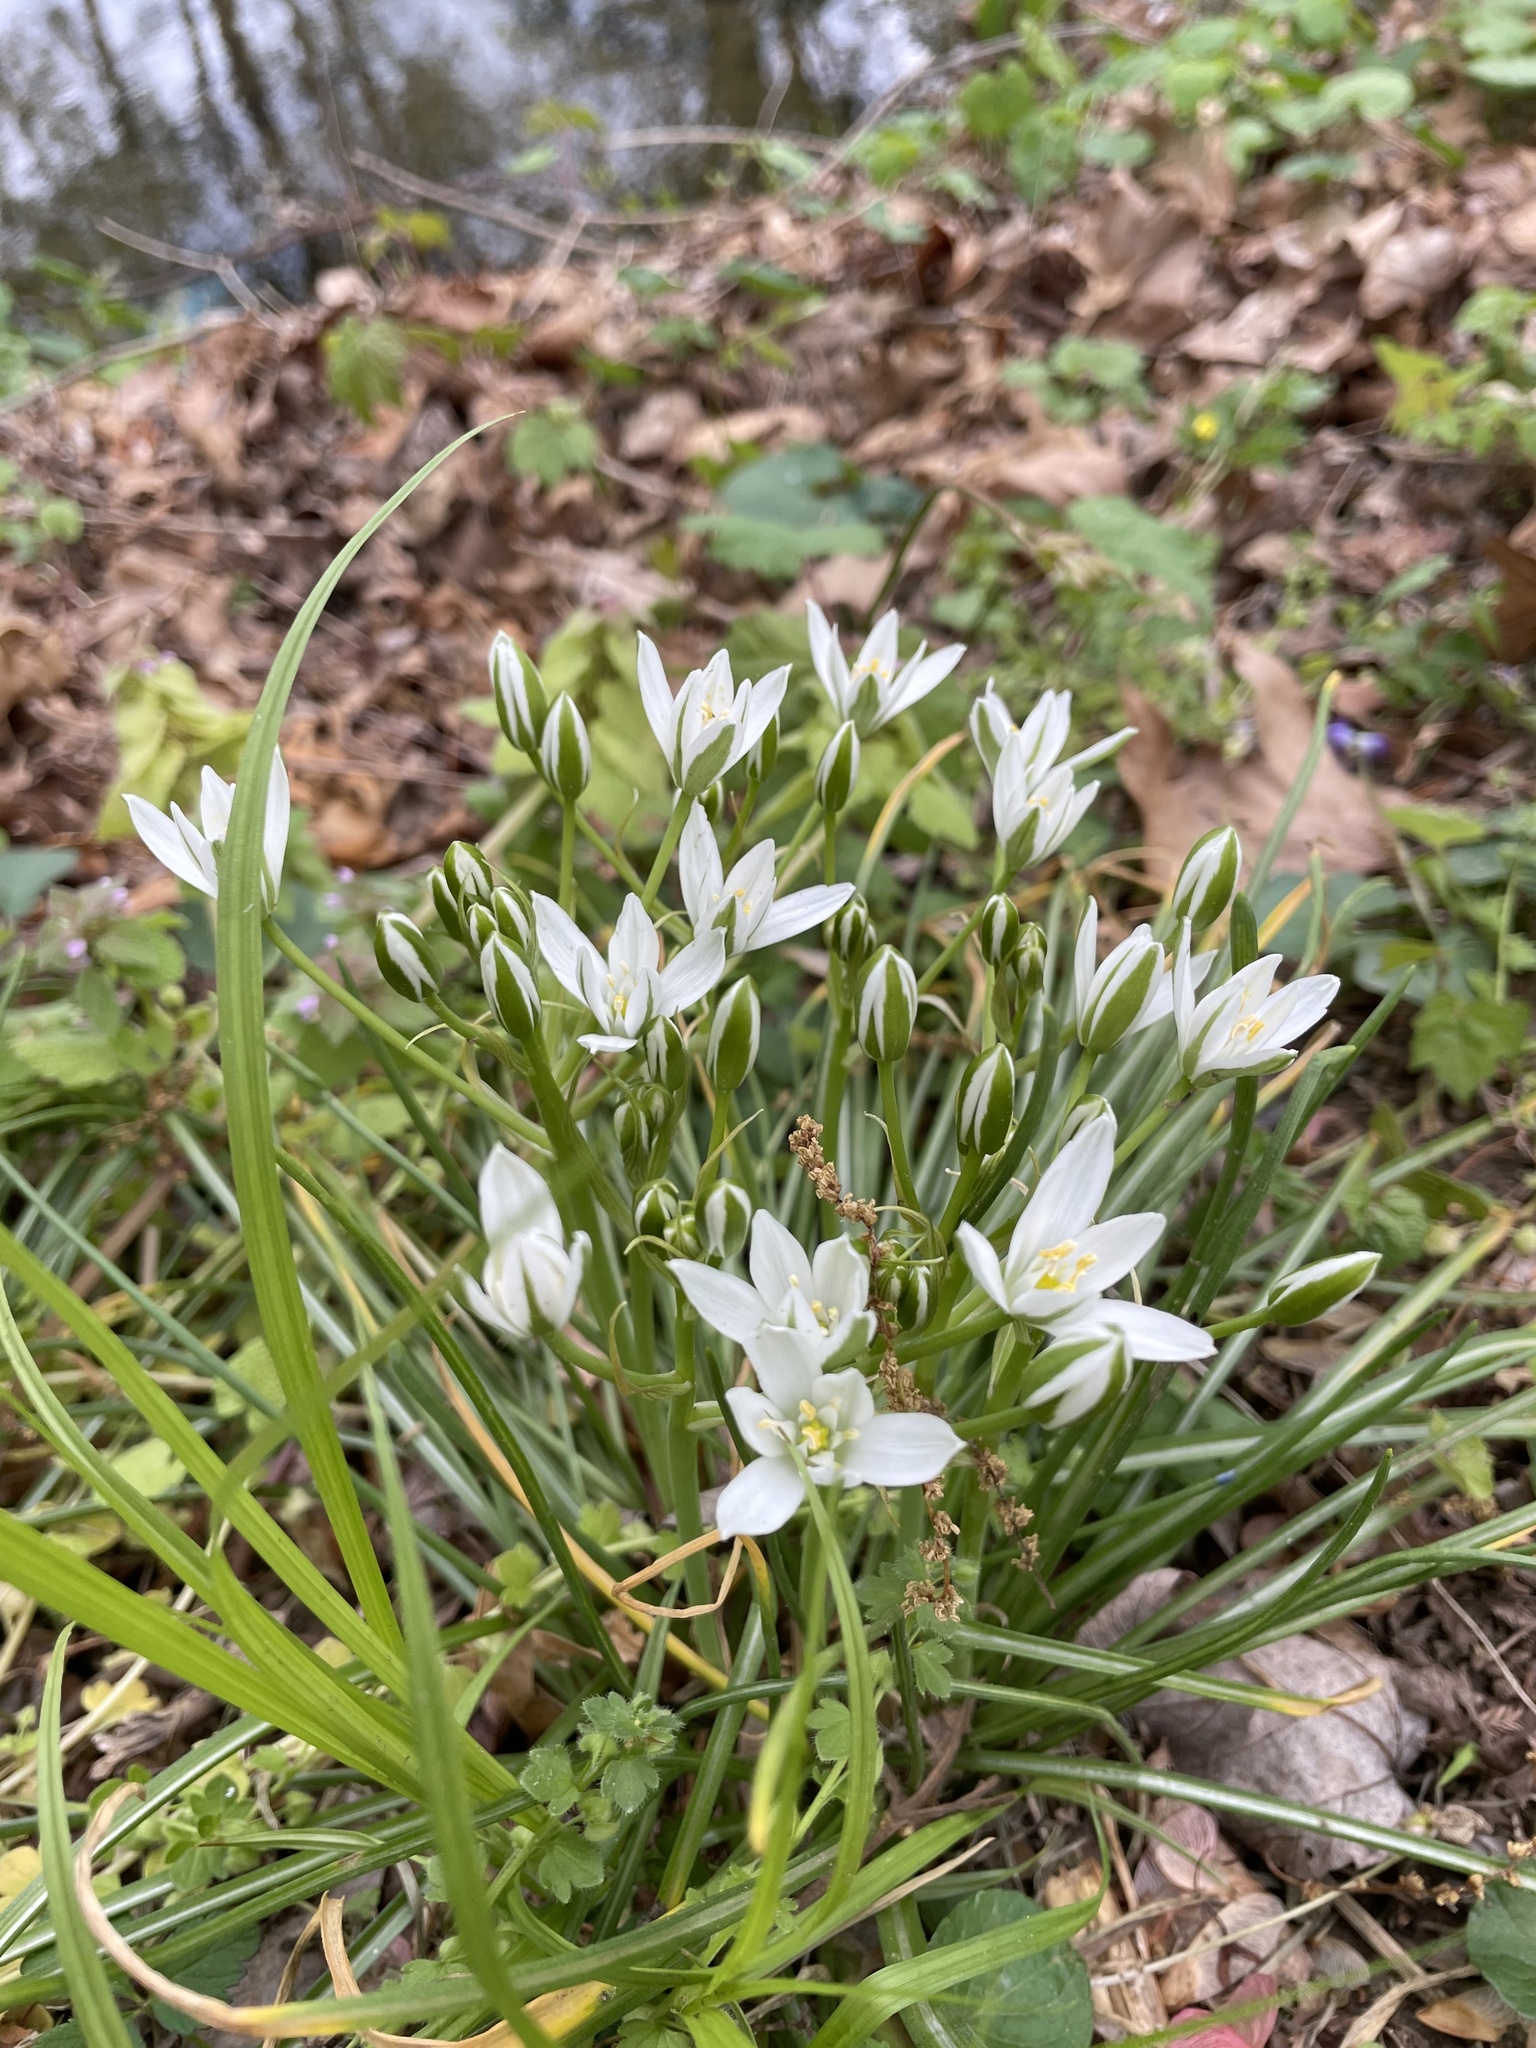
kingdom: Plantae
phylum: Tracheophyta
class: Liliopsida
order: Asparagales
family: Asparagaceae
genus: Ornithogalum
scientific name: Ornithogalum umbellatum
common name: Garden star-of-bethlehem
